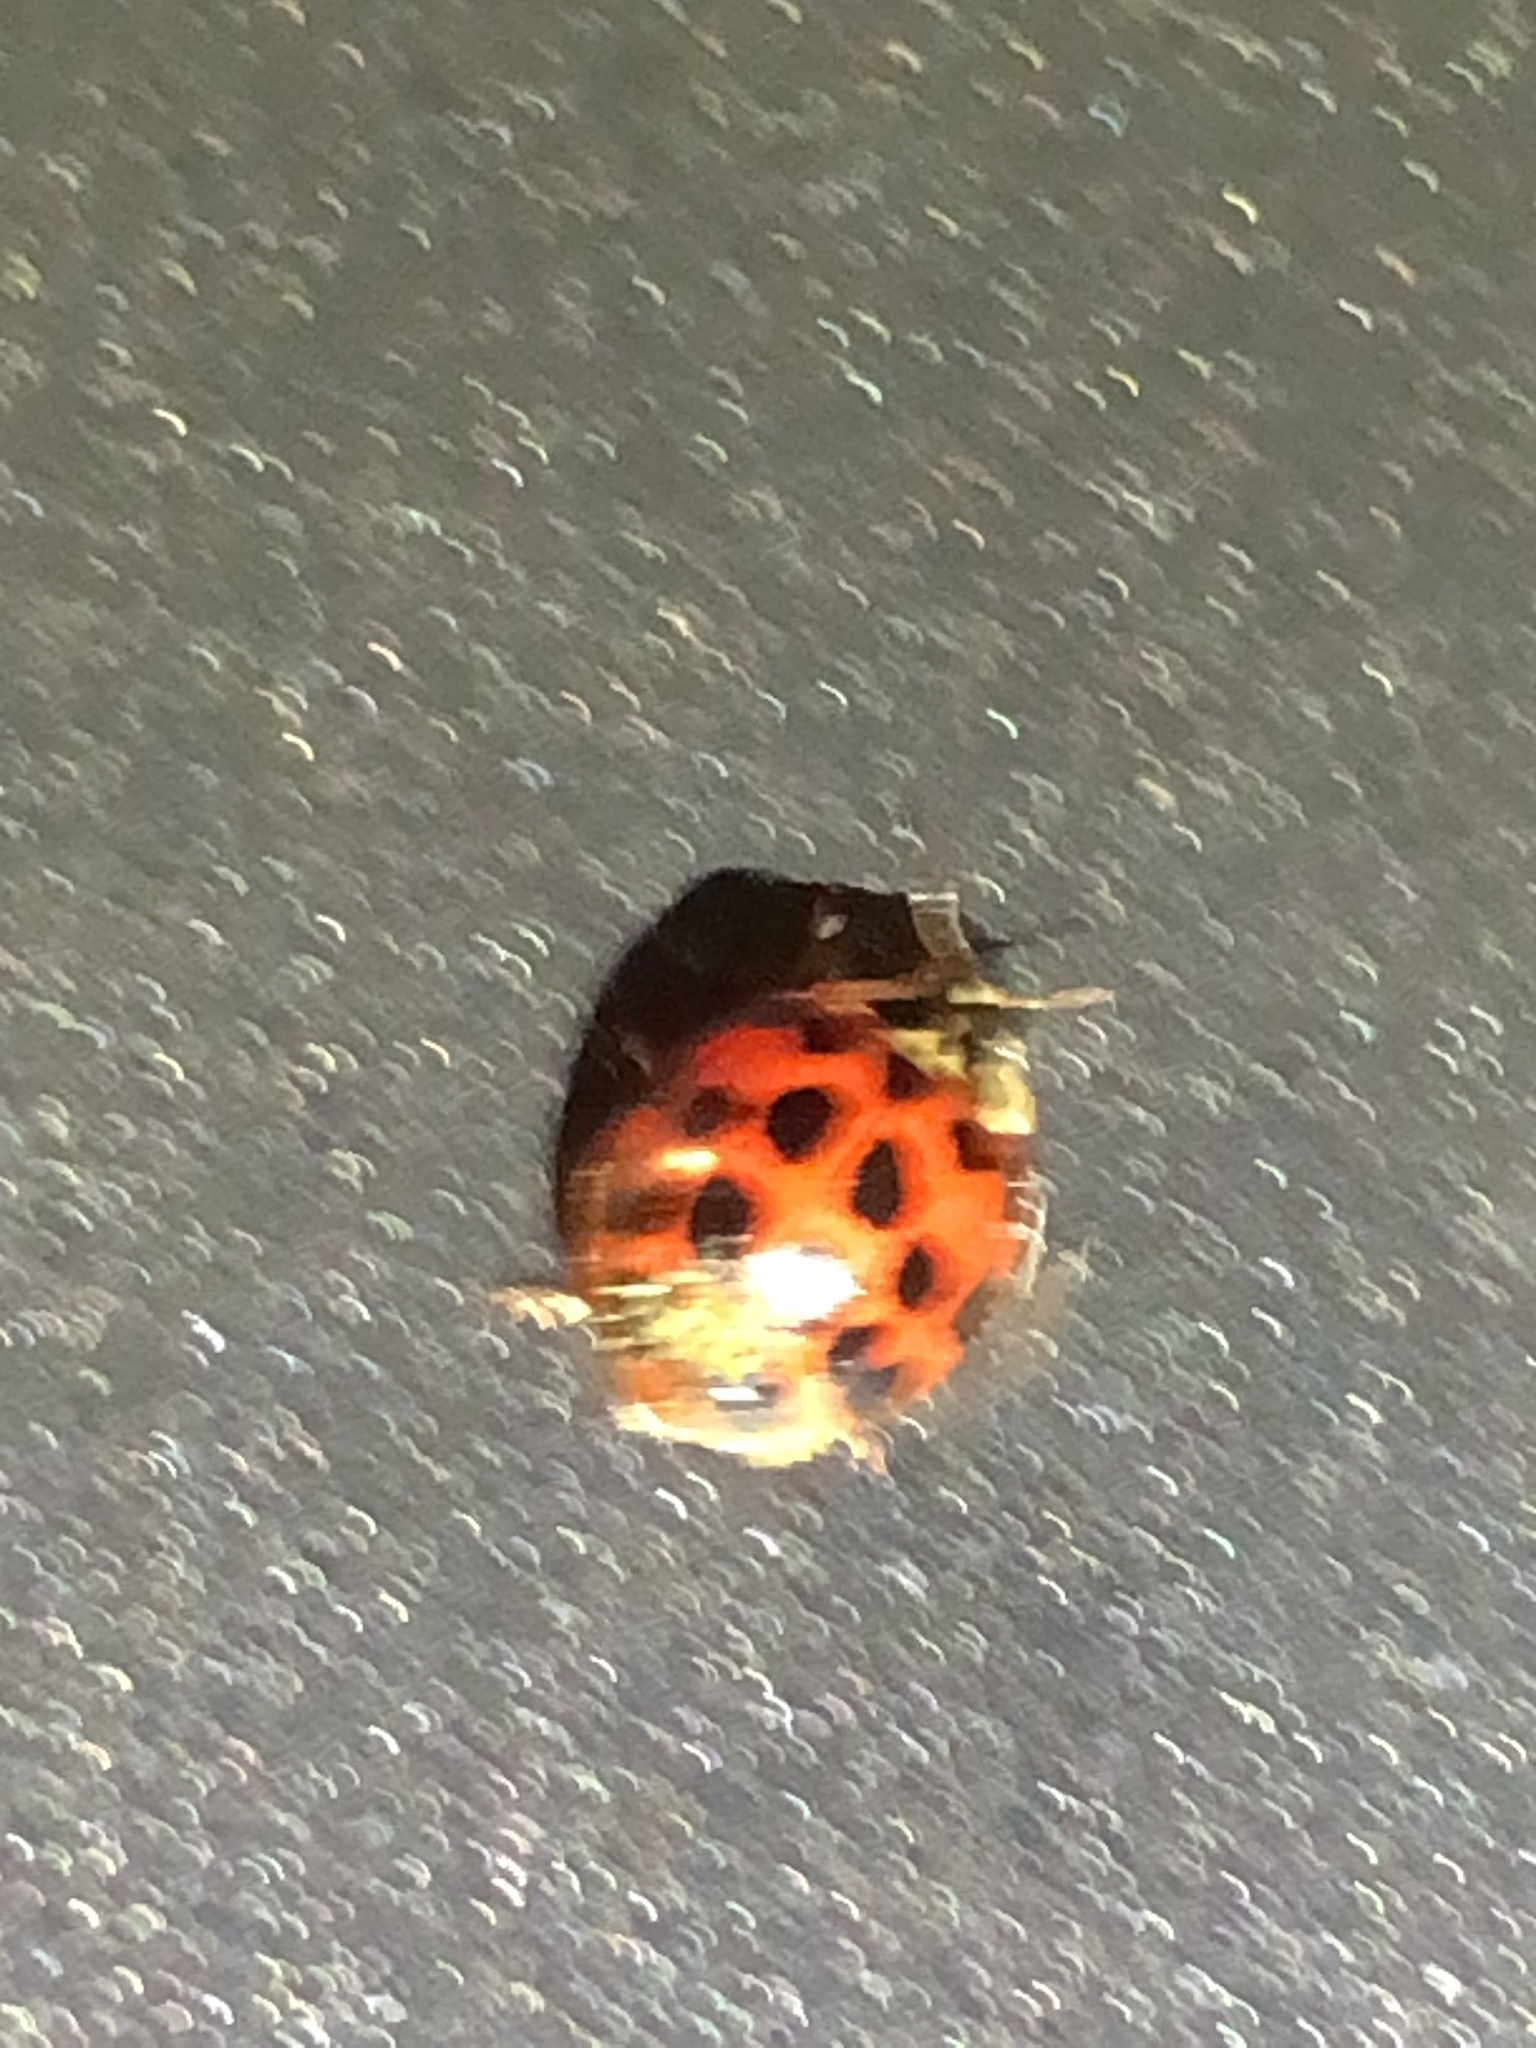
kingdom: Fungi
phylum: Ascomycota
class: Laboulbeniomycetes
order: Laboulbeniales
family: Laboulbeniaceae
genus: Hesperomyces
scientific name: Hesperomyces harmoniae
